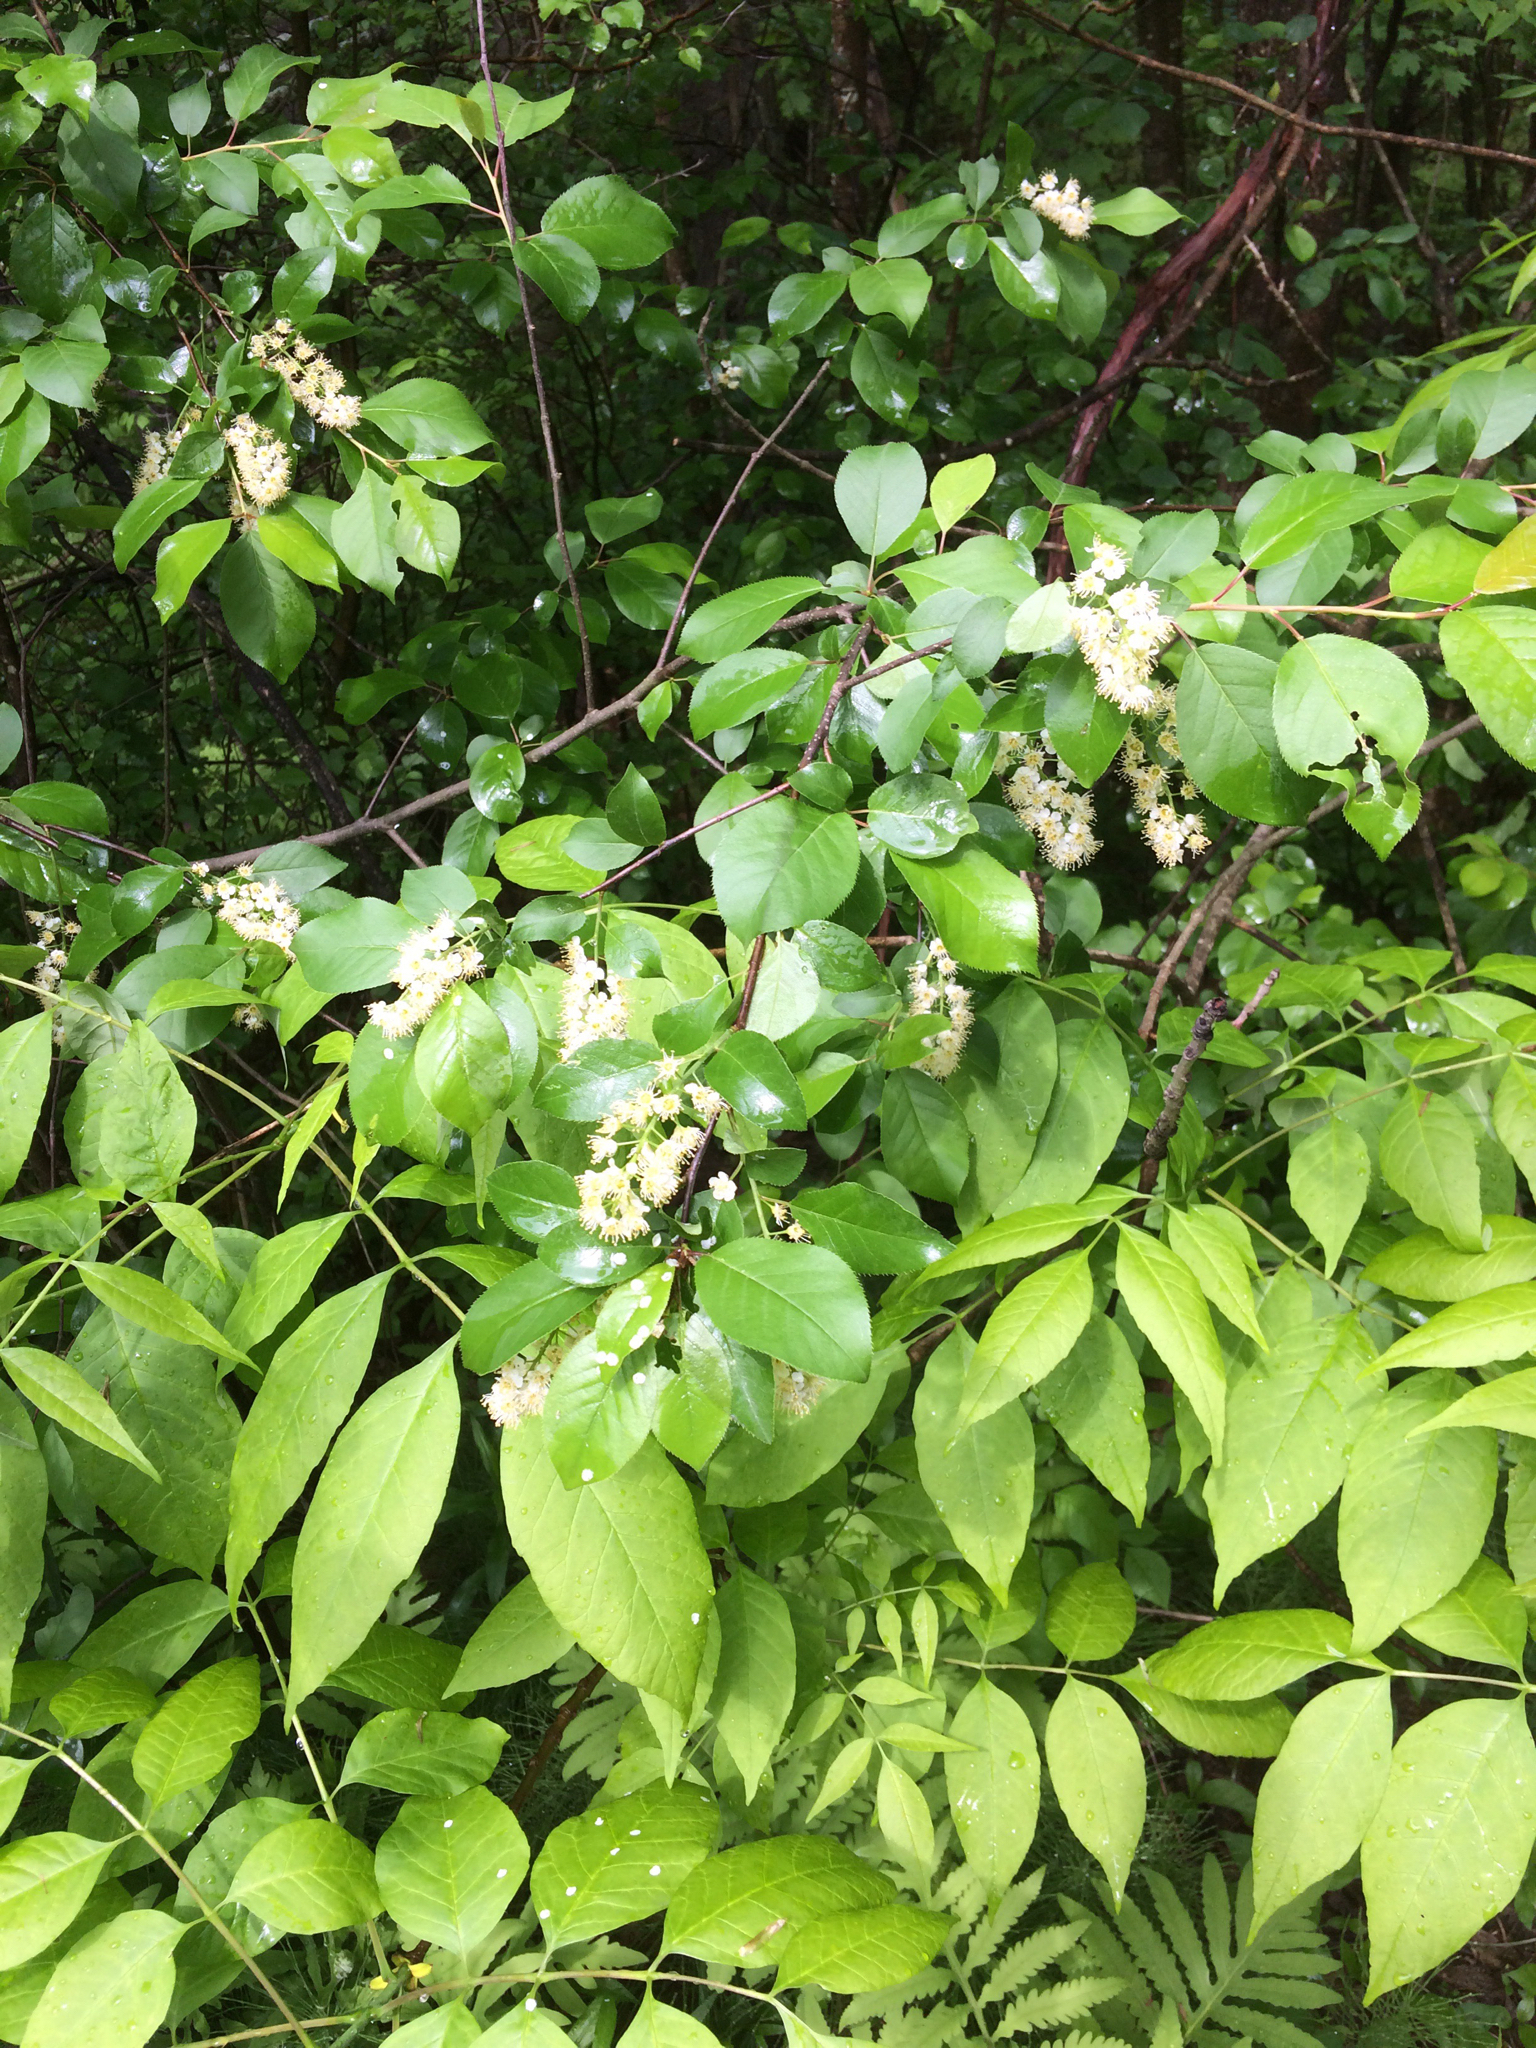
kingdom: Plantae
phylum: Tracheophyta
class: Magnoliopsida
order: Rosales
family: Rosaceae
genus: Prunus
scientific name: Prunus virginiana
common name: Chokecherry
